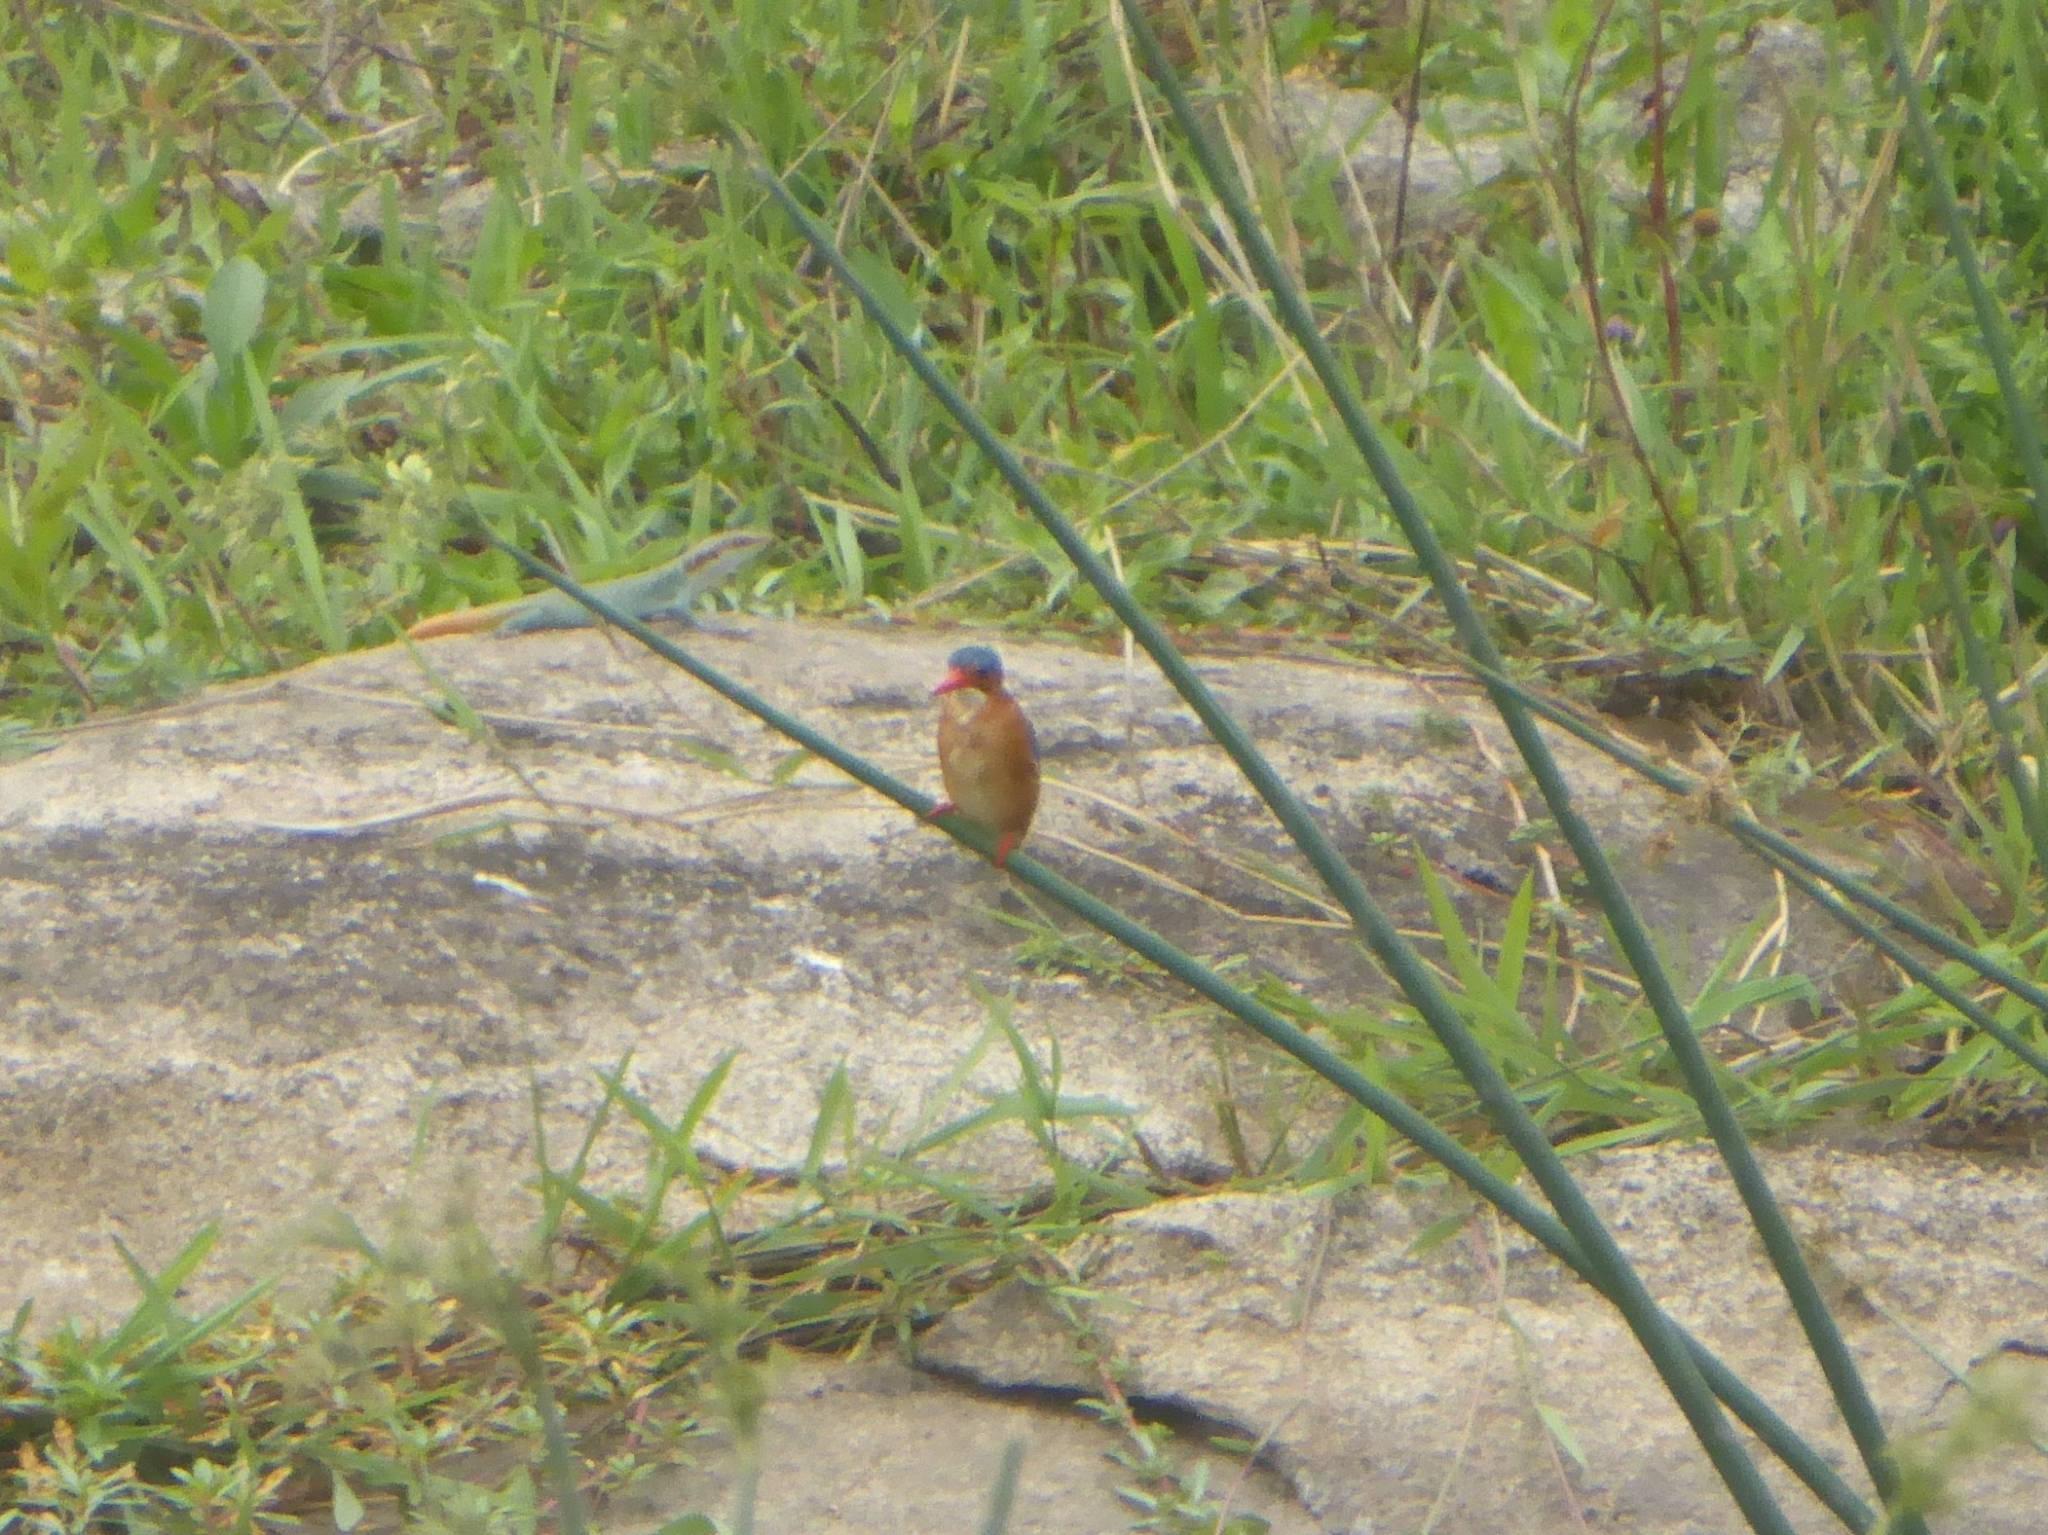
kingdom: Animalia
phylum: Chordata
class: Aves
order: Coraciiformes
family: Alcedinidae
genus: Corythornis
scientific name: Corythornis cristatus
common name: Malachite kingfisher
